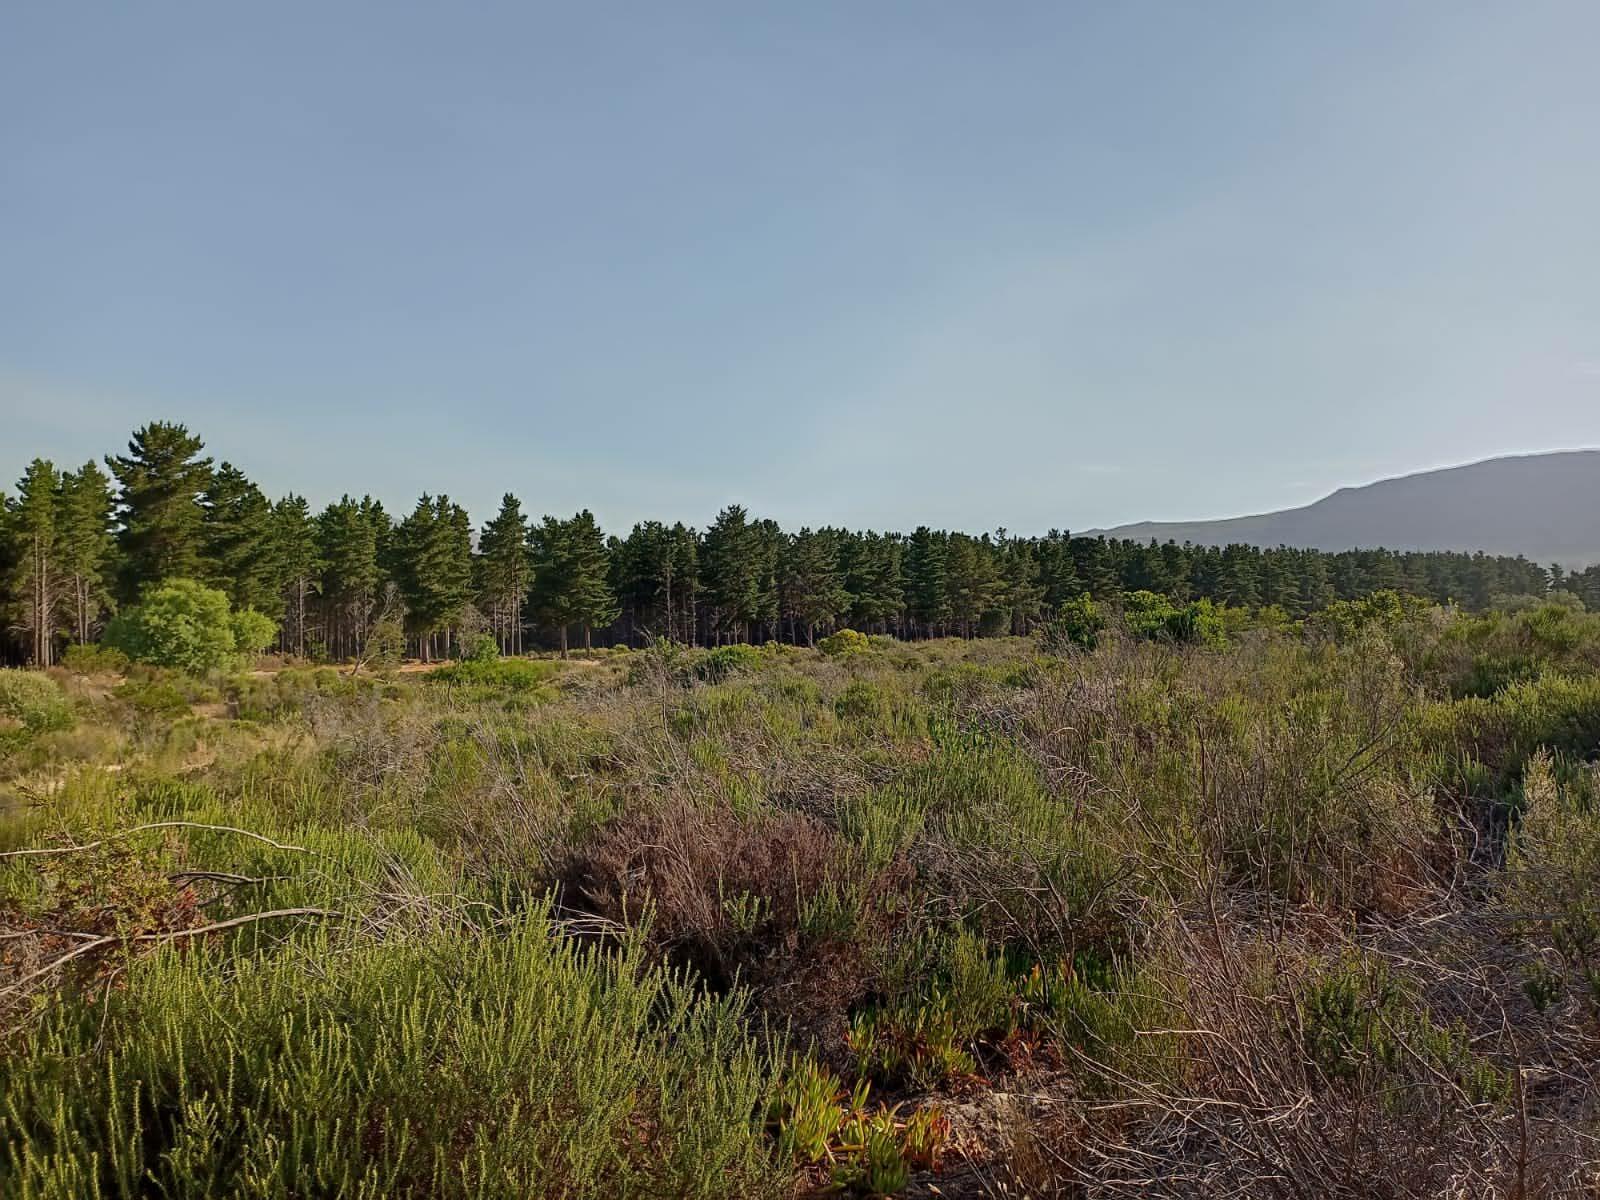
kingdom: Plantae
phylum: Tracheophyta
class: Magnoliopsida
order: Asterales
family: Asteraceae
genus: Metalasia
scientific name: Metalasia densa
